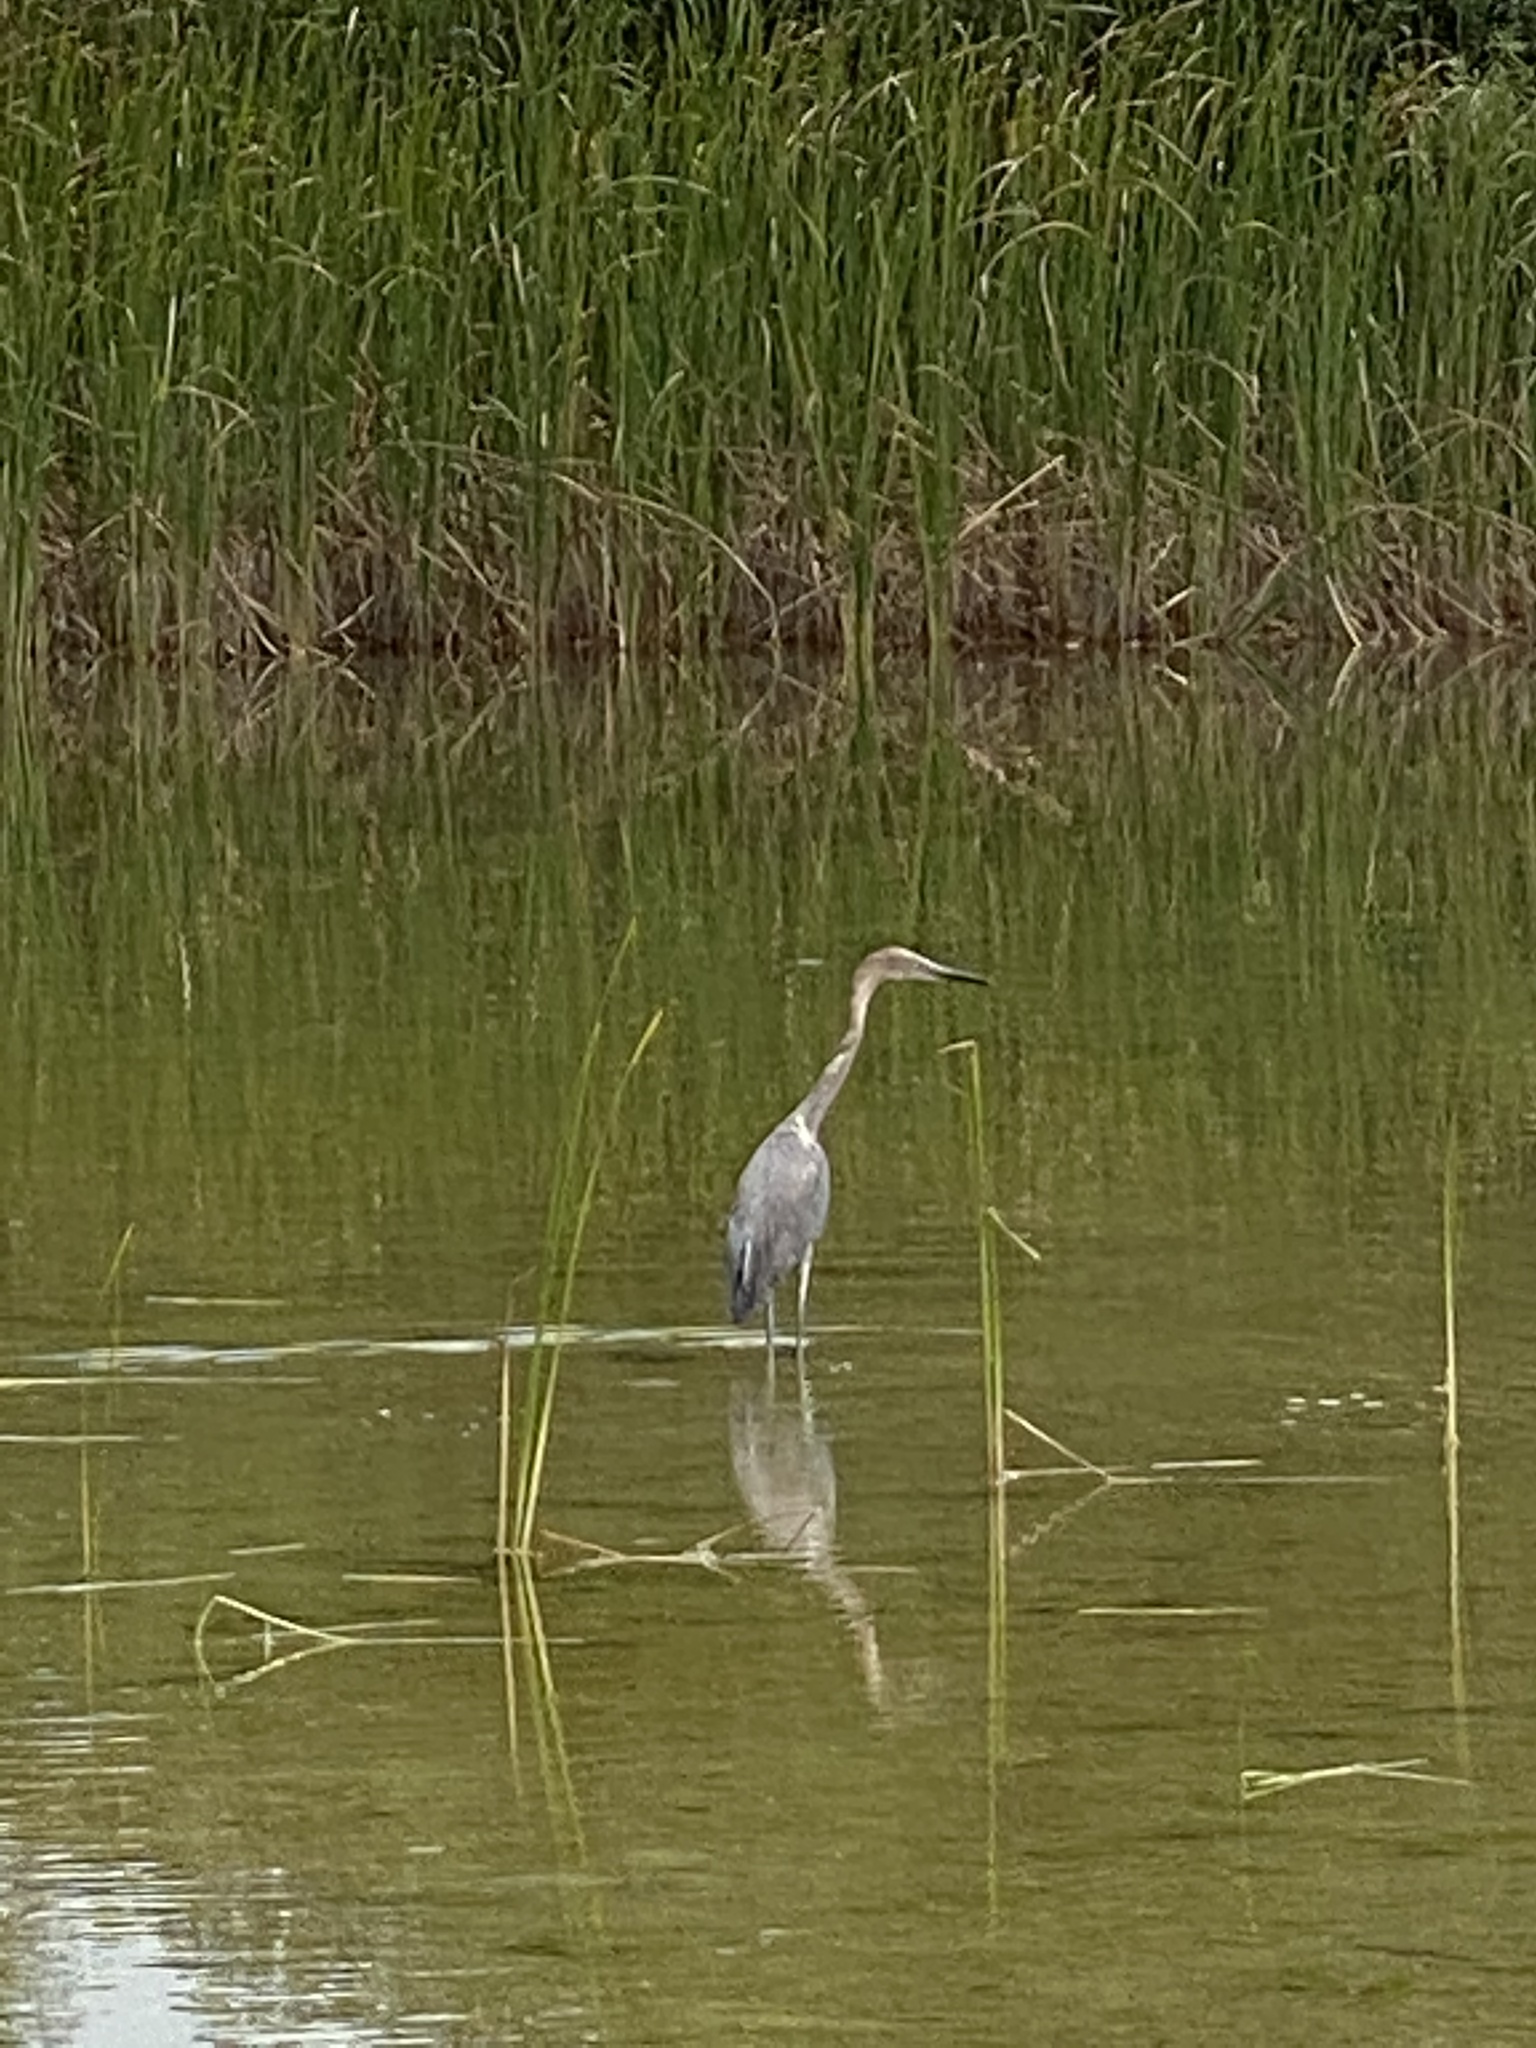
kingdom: Animalia
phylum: Chordata
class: Aves
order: Pelecaniformes
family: Ardeidae
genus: Egretta
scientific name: Egretta rufescens
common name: Reddish egret
